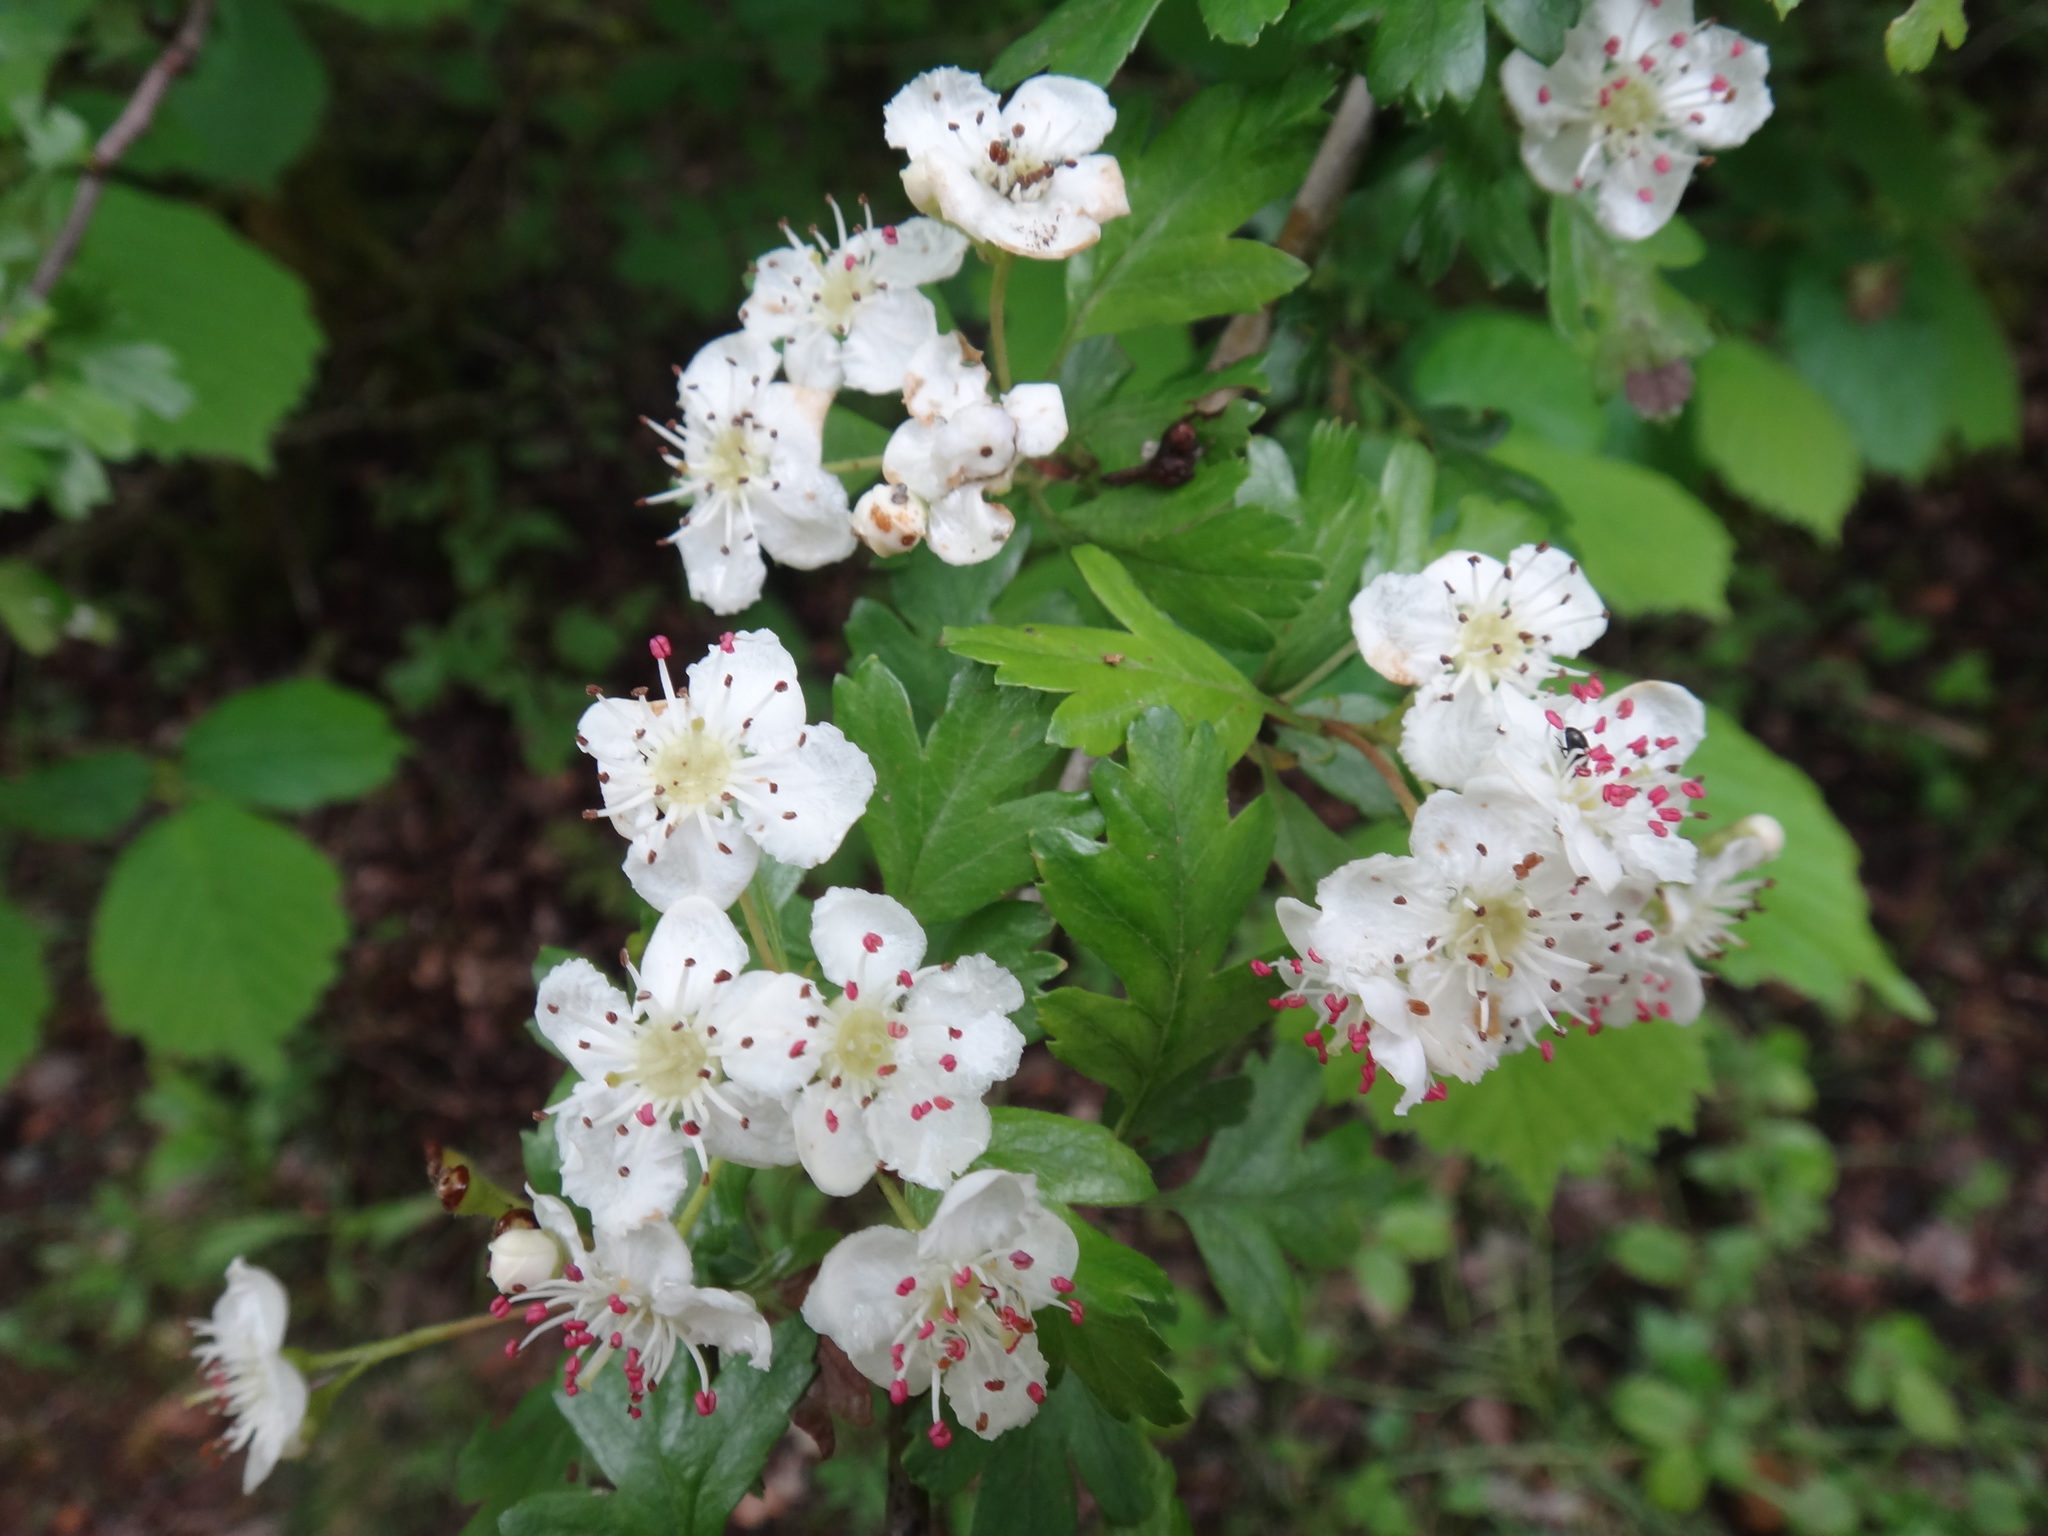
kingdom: Plantae
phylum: Tracheophyta
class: Magnoliopsida
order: Rosales
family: Rosaceae
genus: Crataegus
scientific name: Crataegus monogyna
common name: Hawthorn
